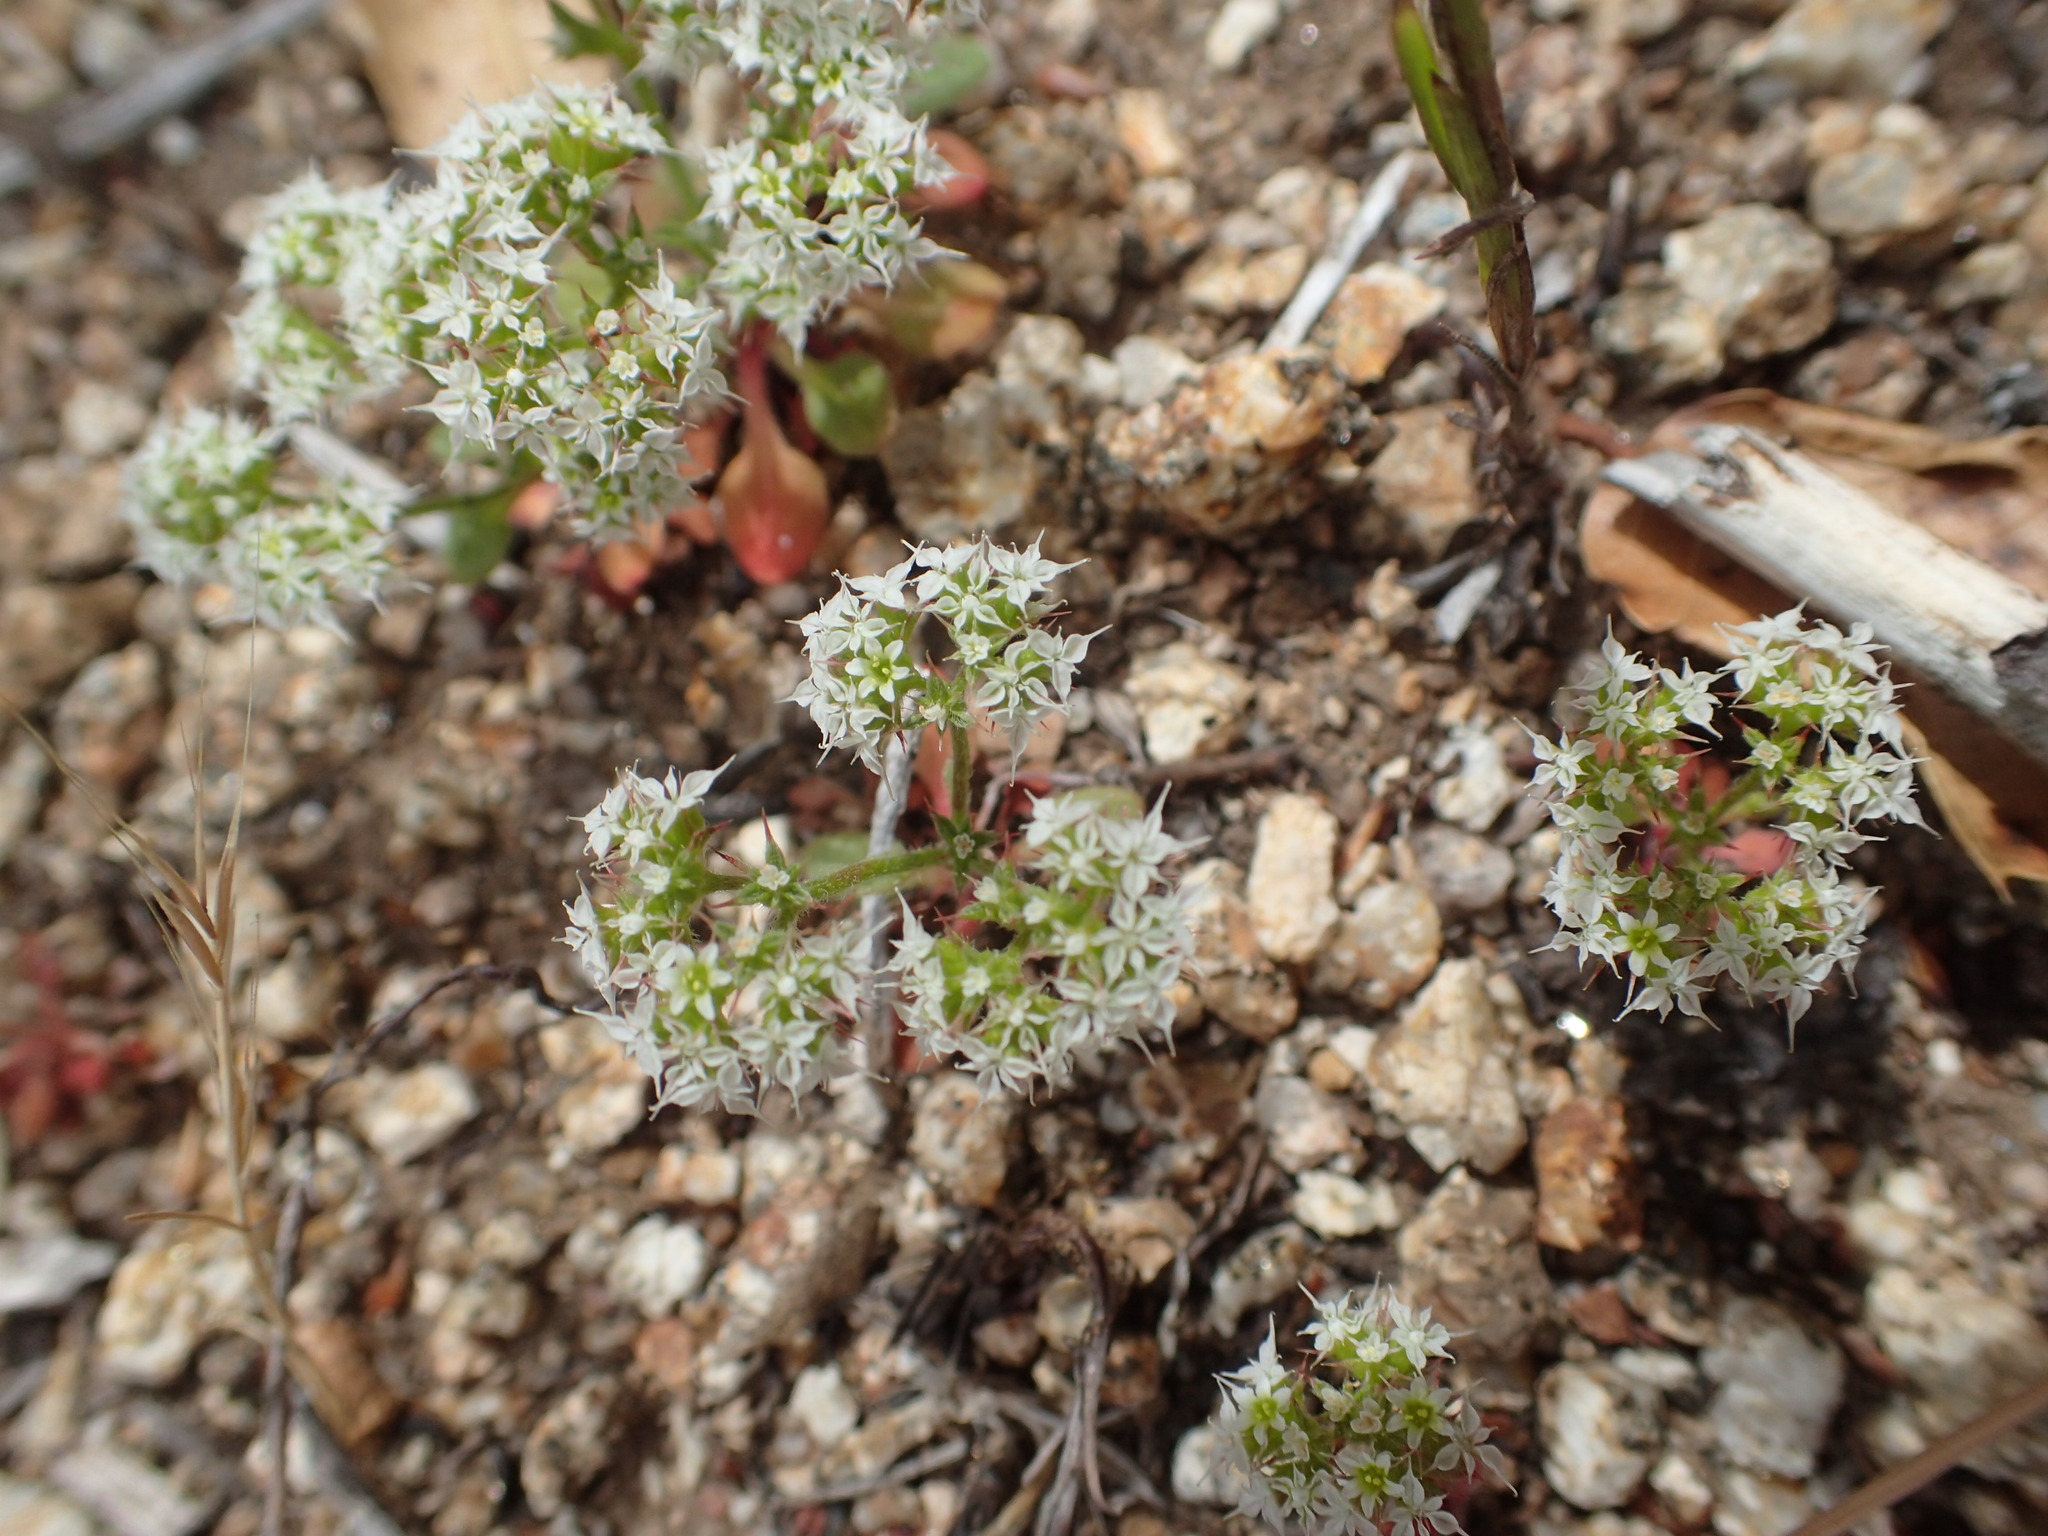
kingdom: Plantae
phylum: Tracheophyta
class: Magnoliopsida
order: Caryophyllales
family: Polygonaceae
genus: Chorizanthe
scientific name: Chorizanthe diffusa
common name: Diffuse spineflower
